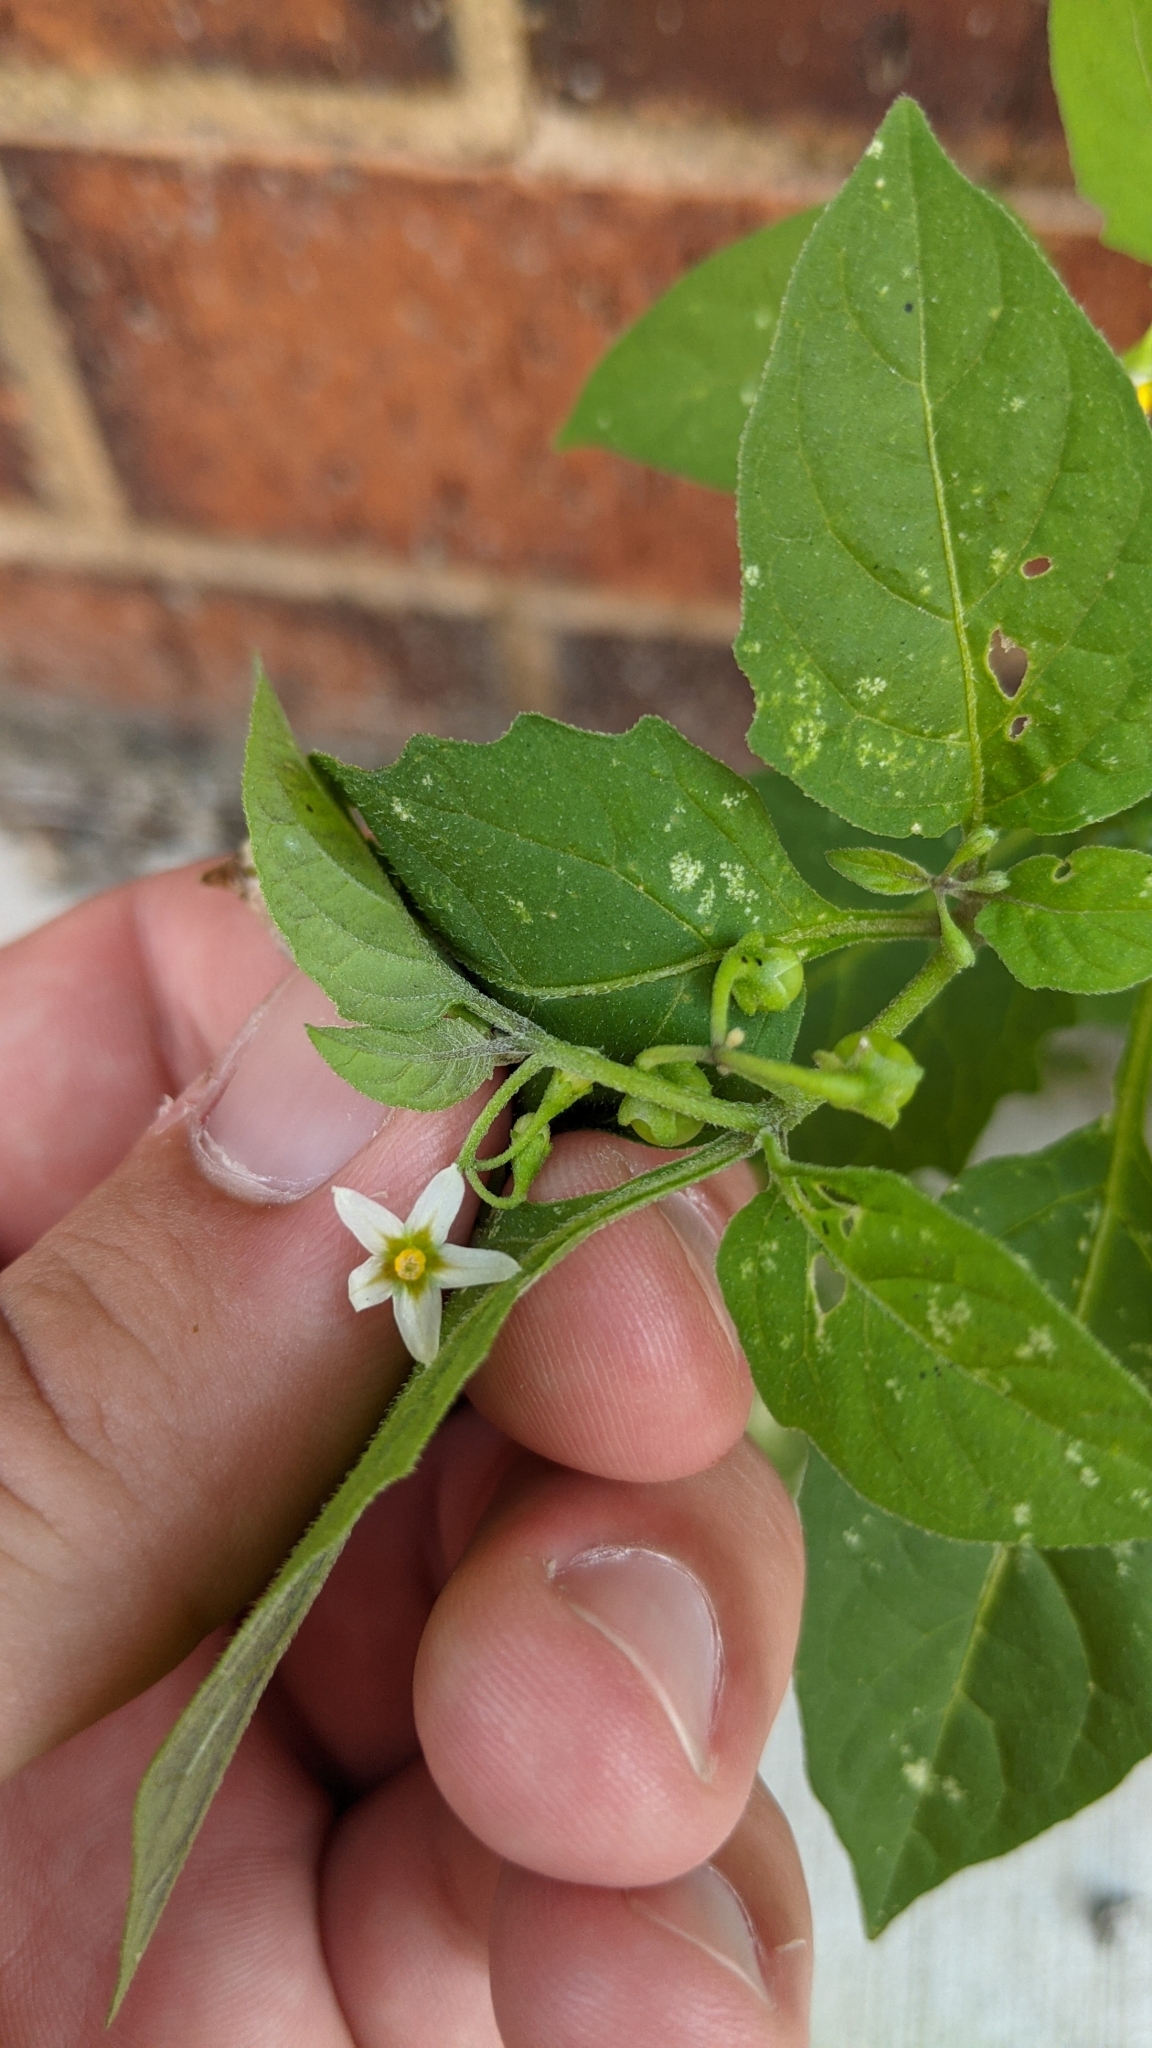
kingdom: Plantae
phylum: Tracheophyta
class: Magnoliopsida
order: Solanales
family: Solanaceae
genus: Solanum
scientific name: Solanum emulans
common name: Eastern black nightshade
